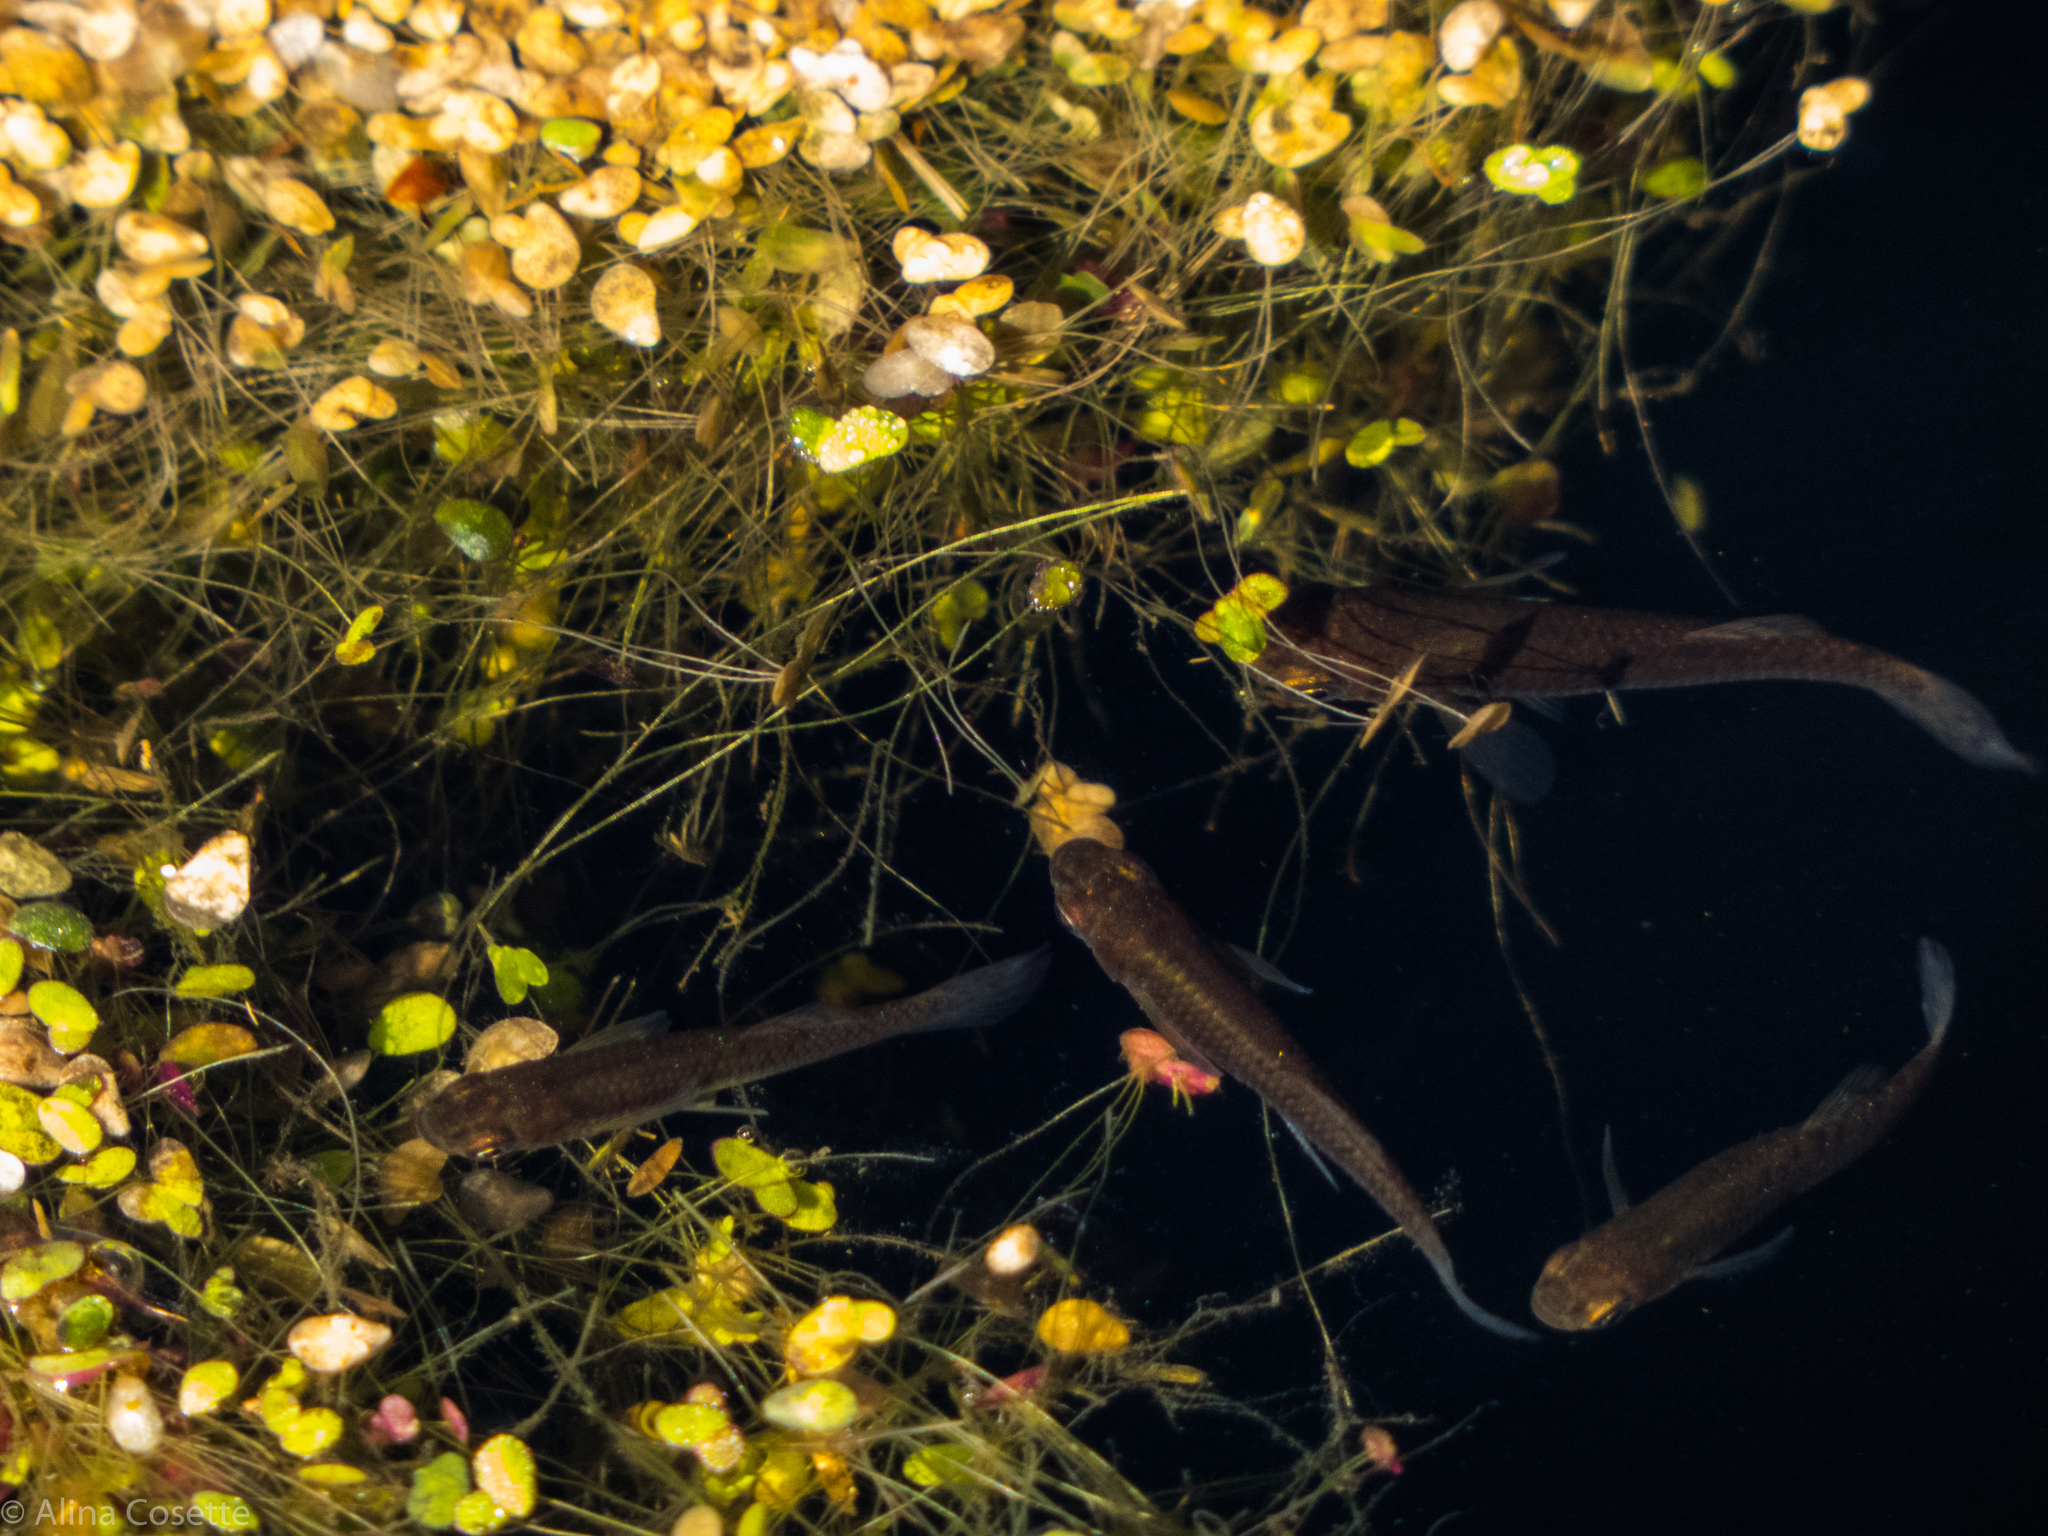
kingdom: Animalia
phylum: Chordata
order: Cyprinodontiformes
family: Poeciliidae
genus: Gambusia
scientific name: Gambusia holbrooki
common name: Eastern mosquitofish
